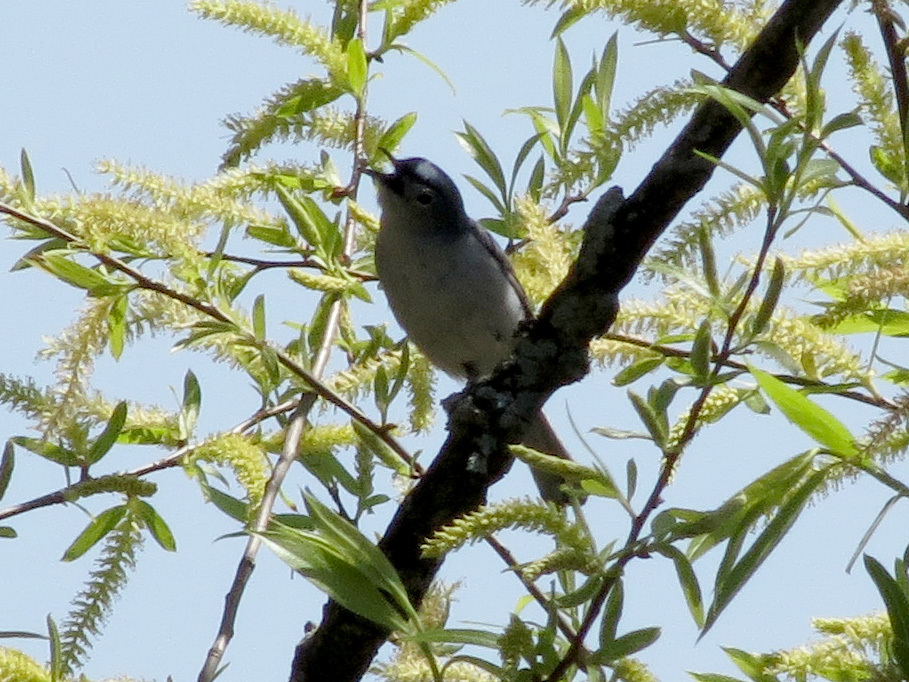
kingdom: Animalia
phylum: Chordata
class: Aves
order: Passeriformes
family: Polioptilidae
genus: Polioptila
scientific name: Polioptila caerulea
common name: Blue-gray gnatcatcher
